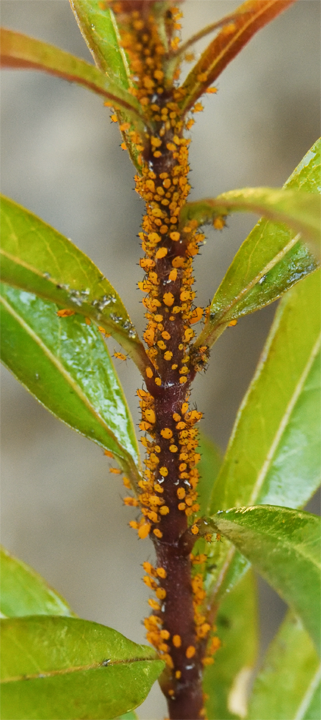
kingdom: Animalia
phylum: Arthropoda
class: Insecta
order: Hemiptera
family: Aphididae
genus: Aphis
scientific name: Aphis nerii
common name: Oleander aphid
